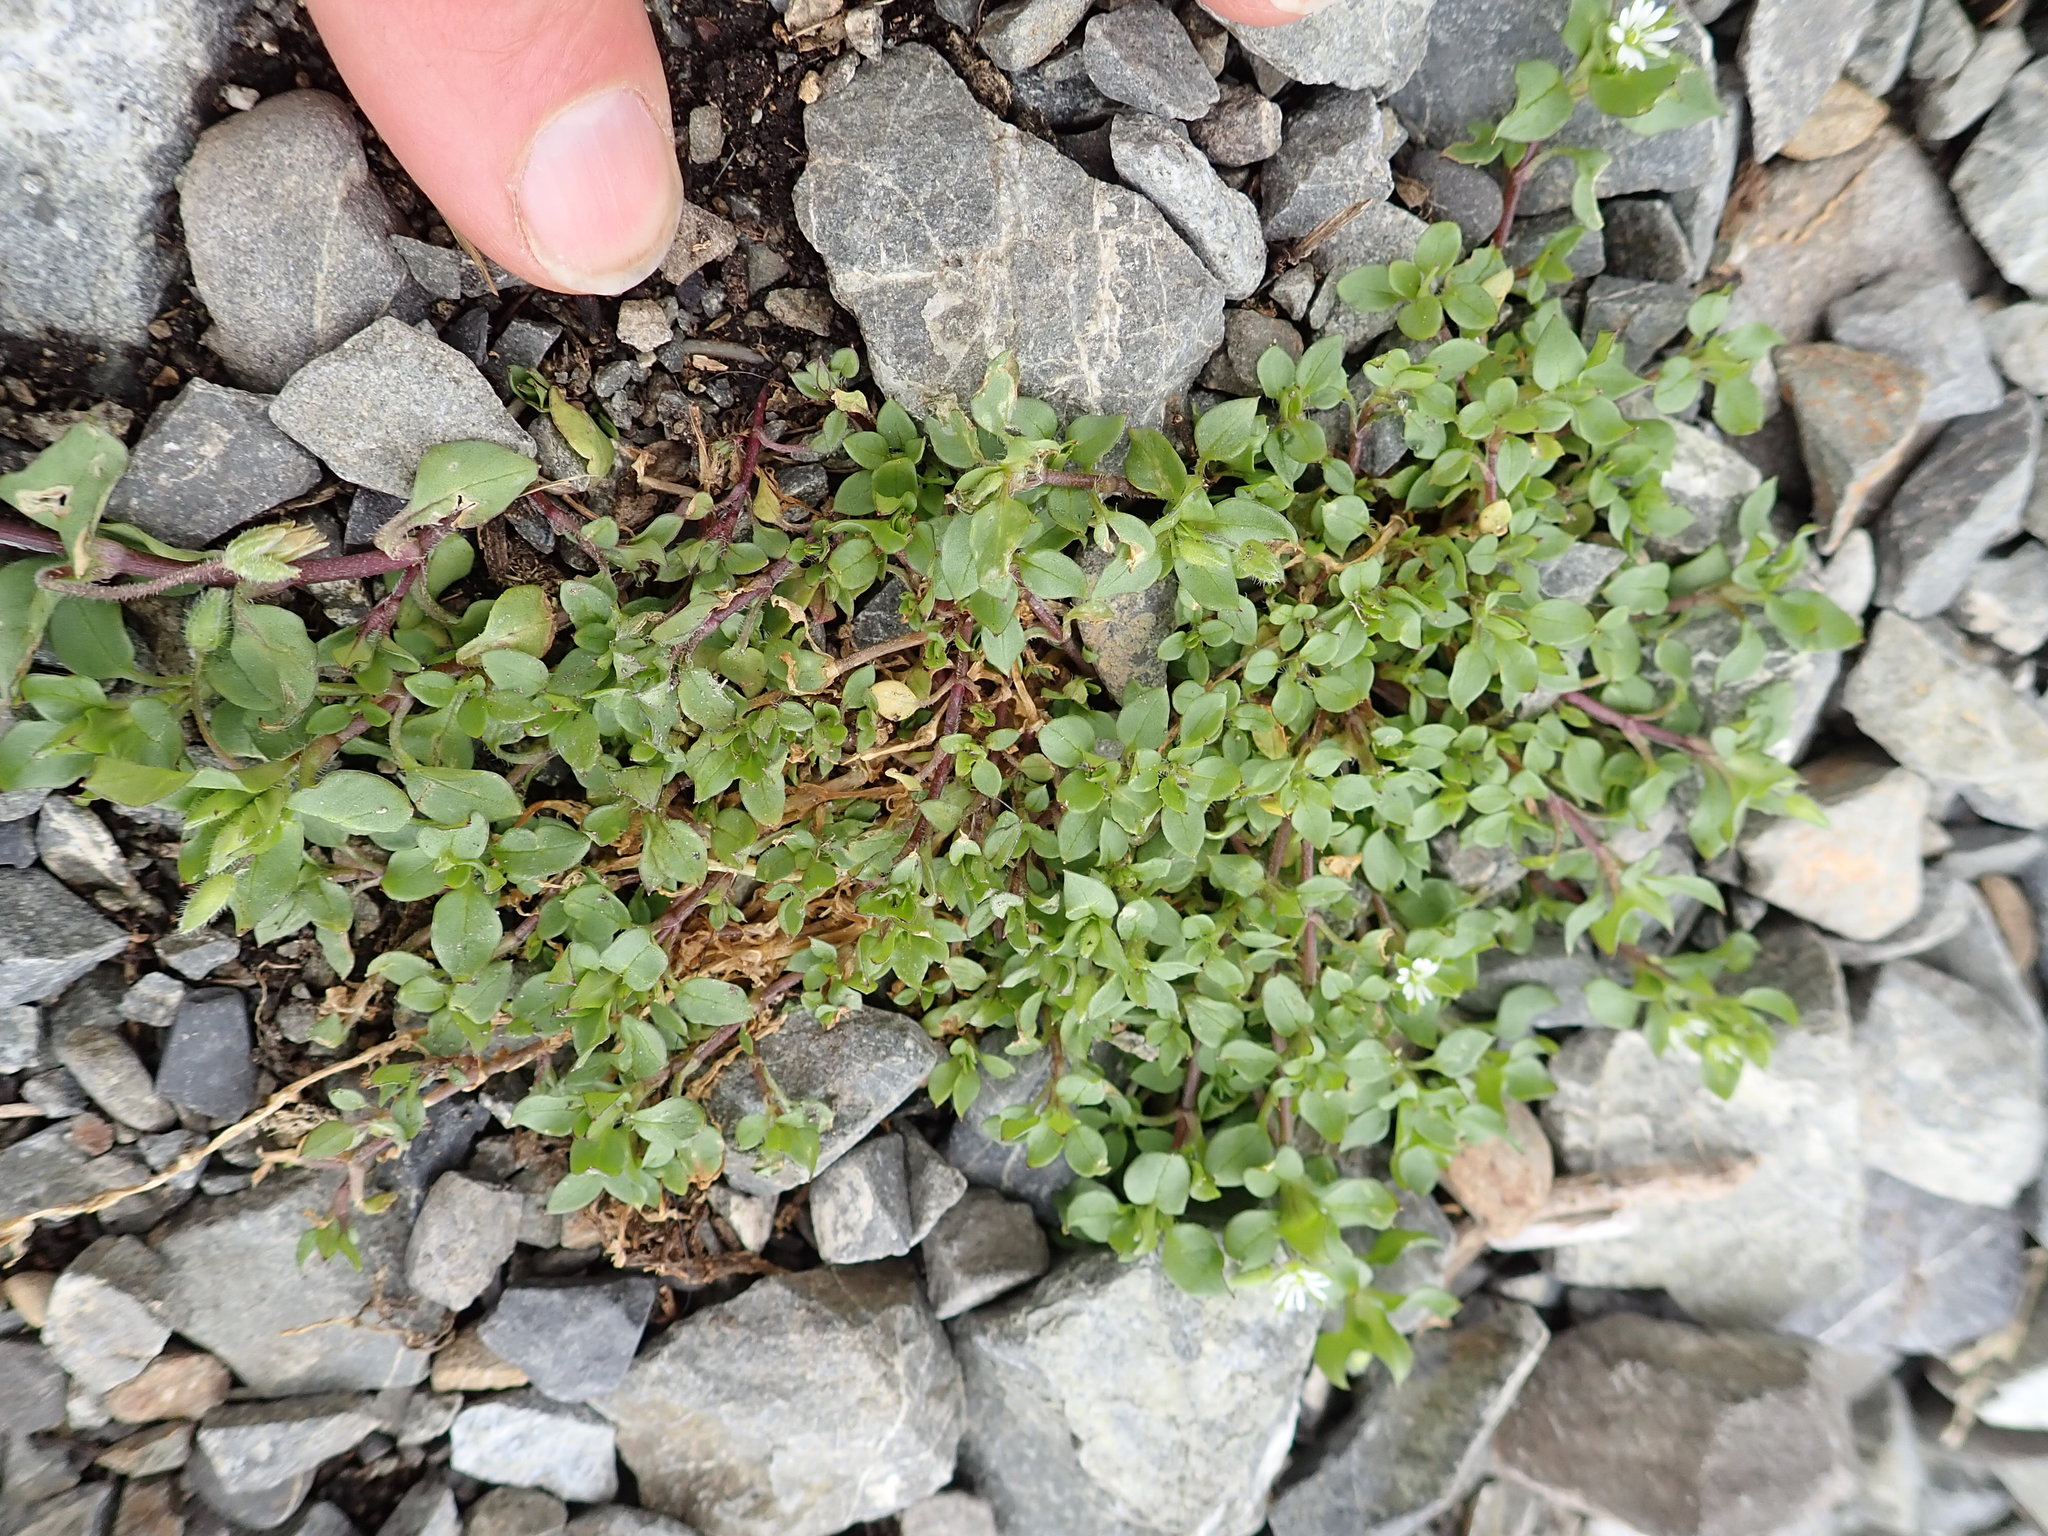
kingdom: Plantae
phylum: Tracheophyta
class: Magnoliopsida
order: Caryophyllales
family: Caryophyllaceae
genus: Stellaria
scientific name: Stellaria media
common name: Common chickweed
